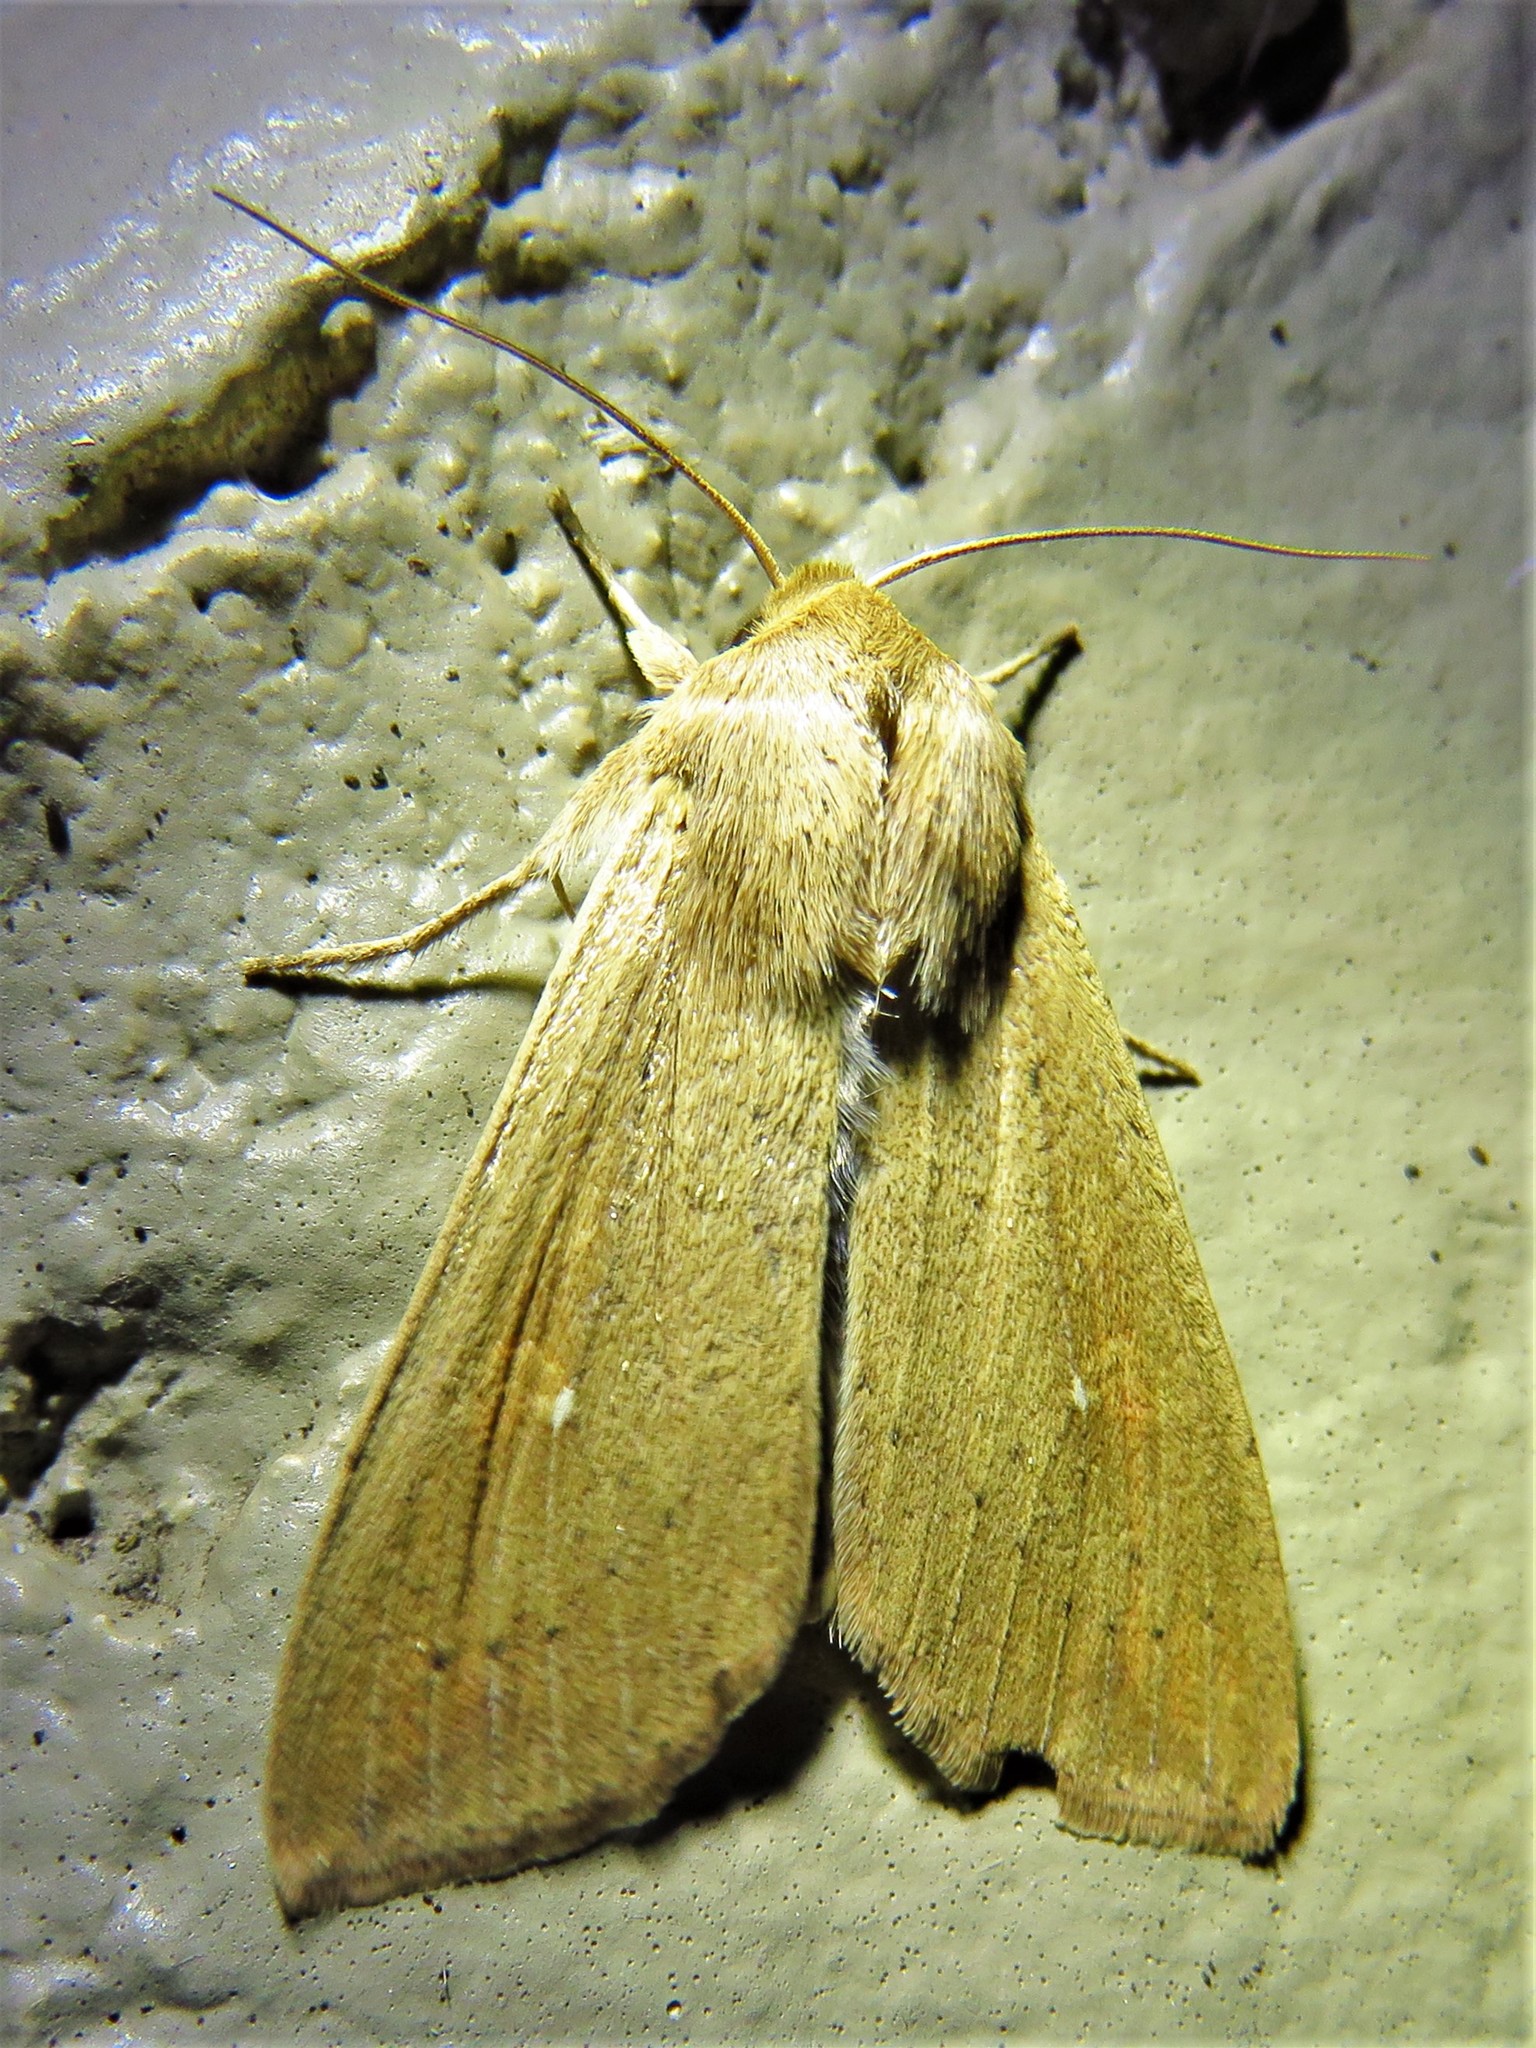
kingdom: Animalia
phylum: Arthropoda
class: Insecta
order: Lepidoptera
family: Noctuidae
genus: Mythimna
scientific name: Mythimna unipuncta
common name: White-speck
